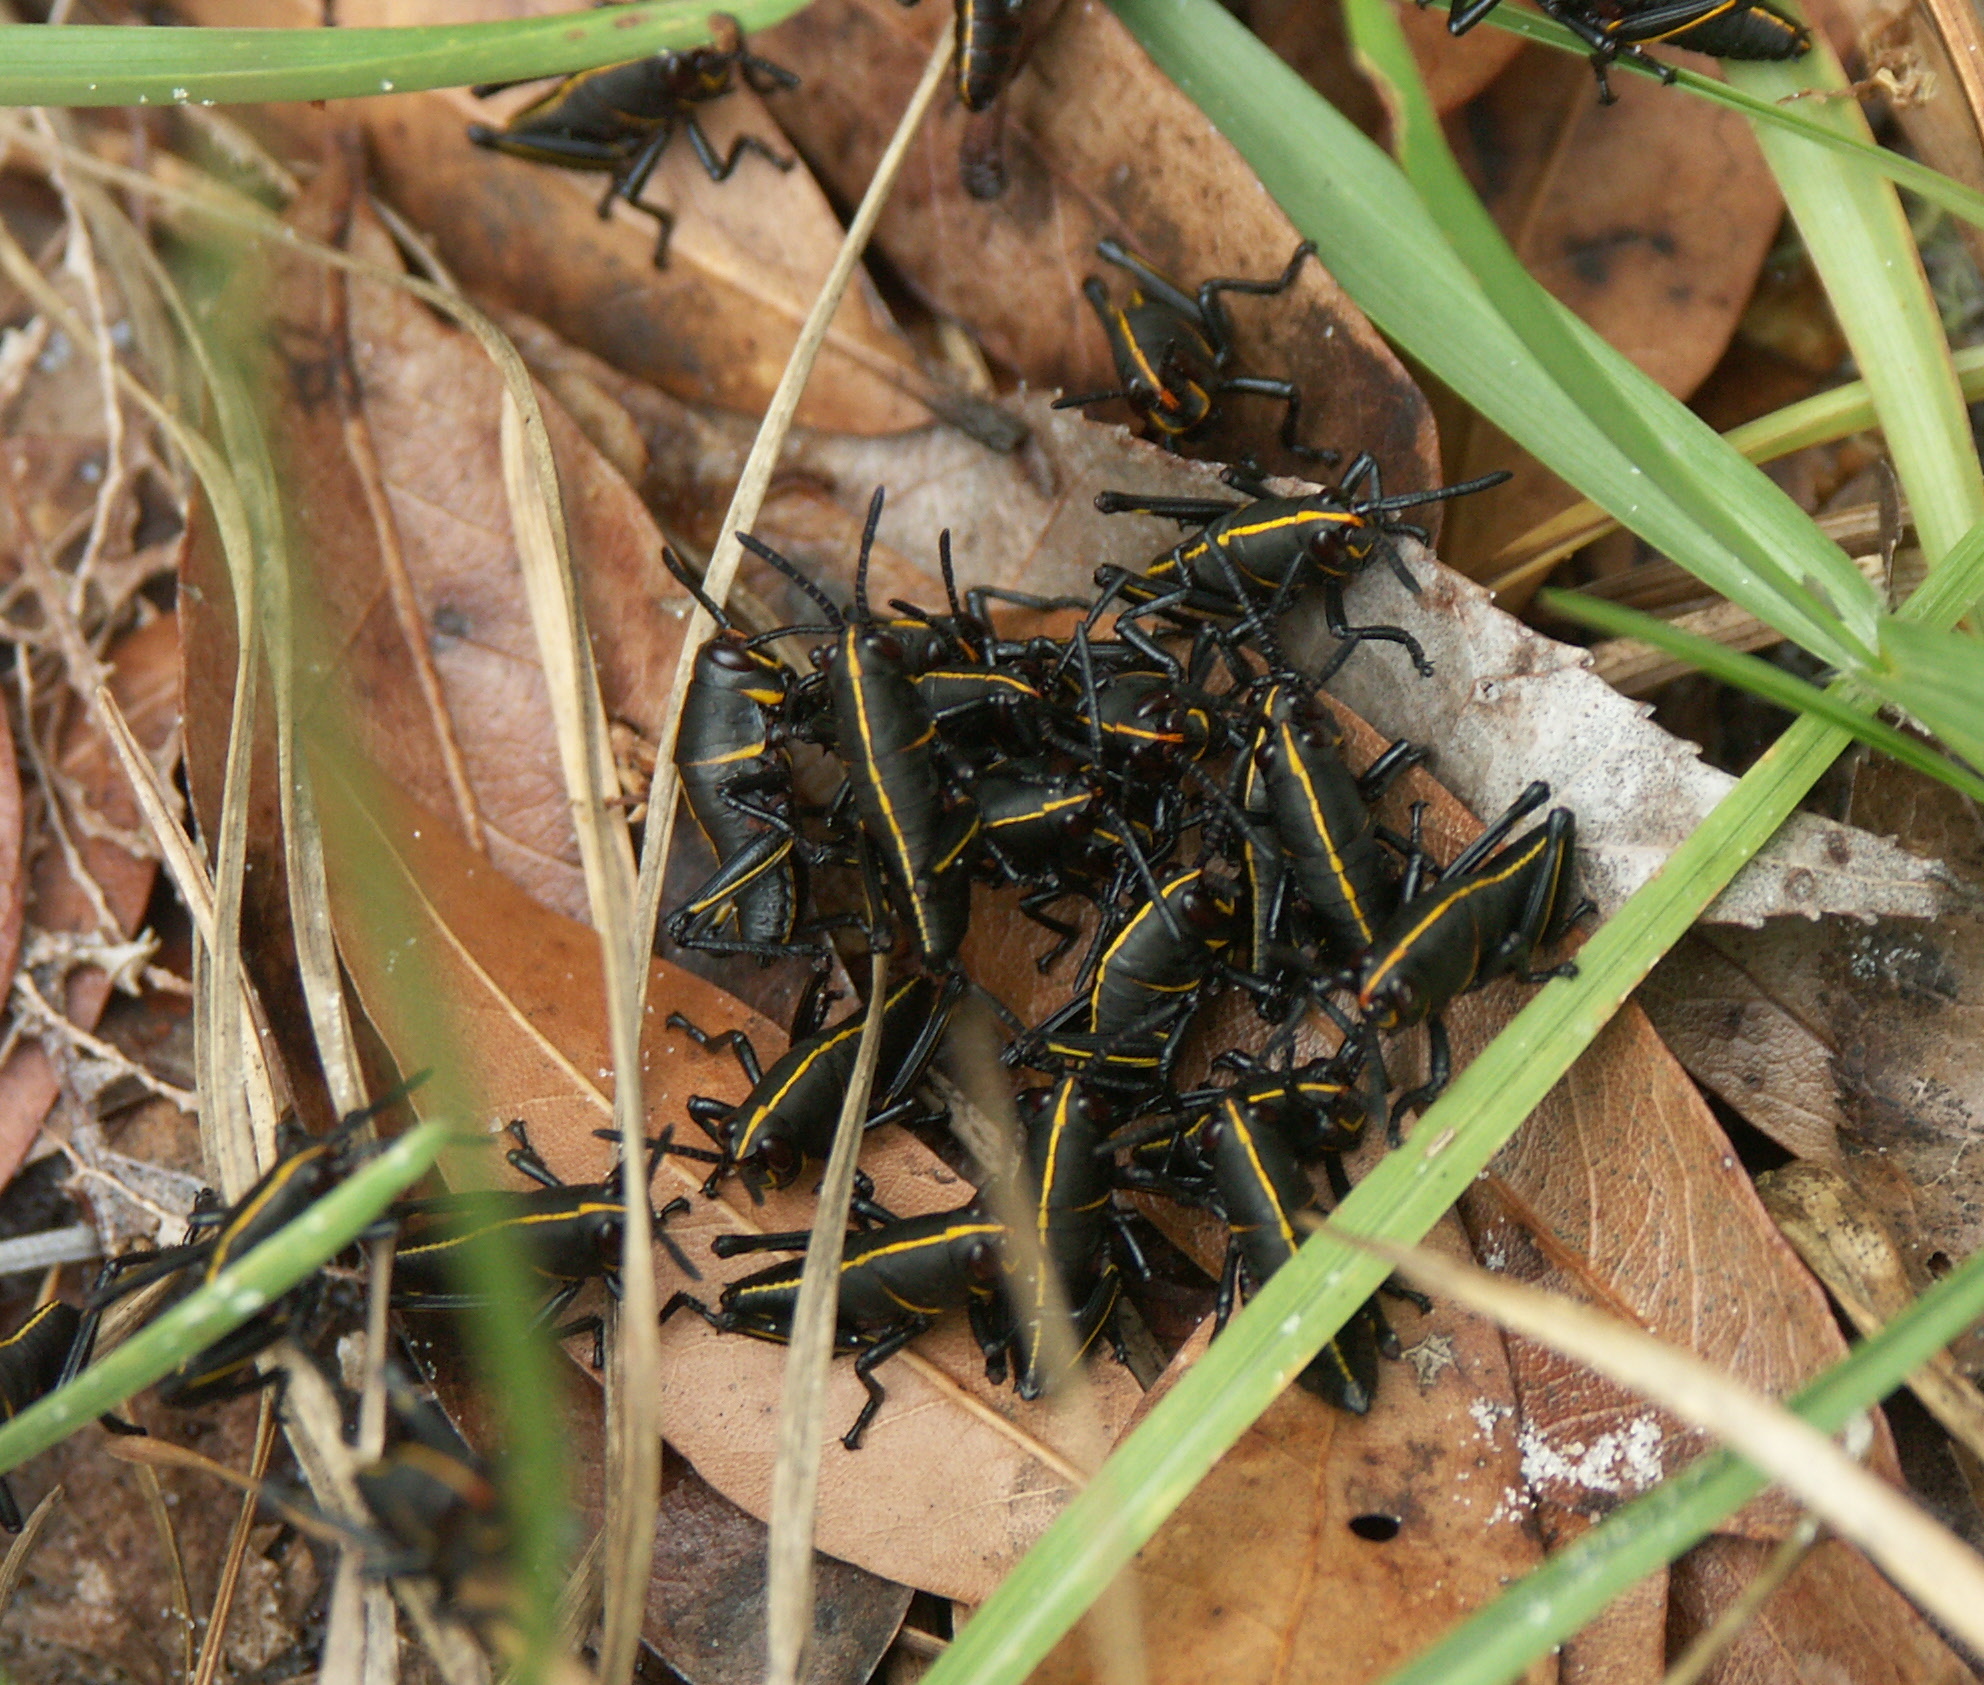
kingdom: Animalia
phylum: Arthropoda
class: Insecta
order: Orthoptera
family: Romaleidae
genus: Romalea
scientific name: Romalea microptera
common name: Eastern lubber grasshopper
